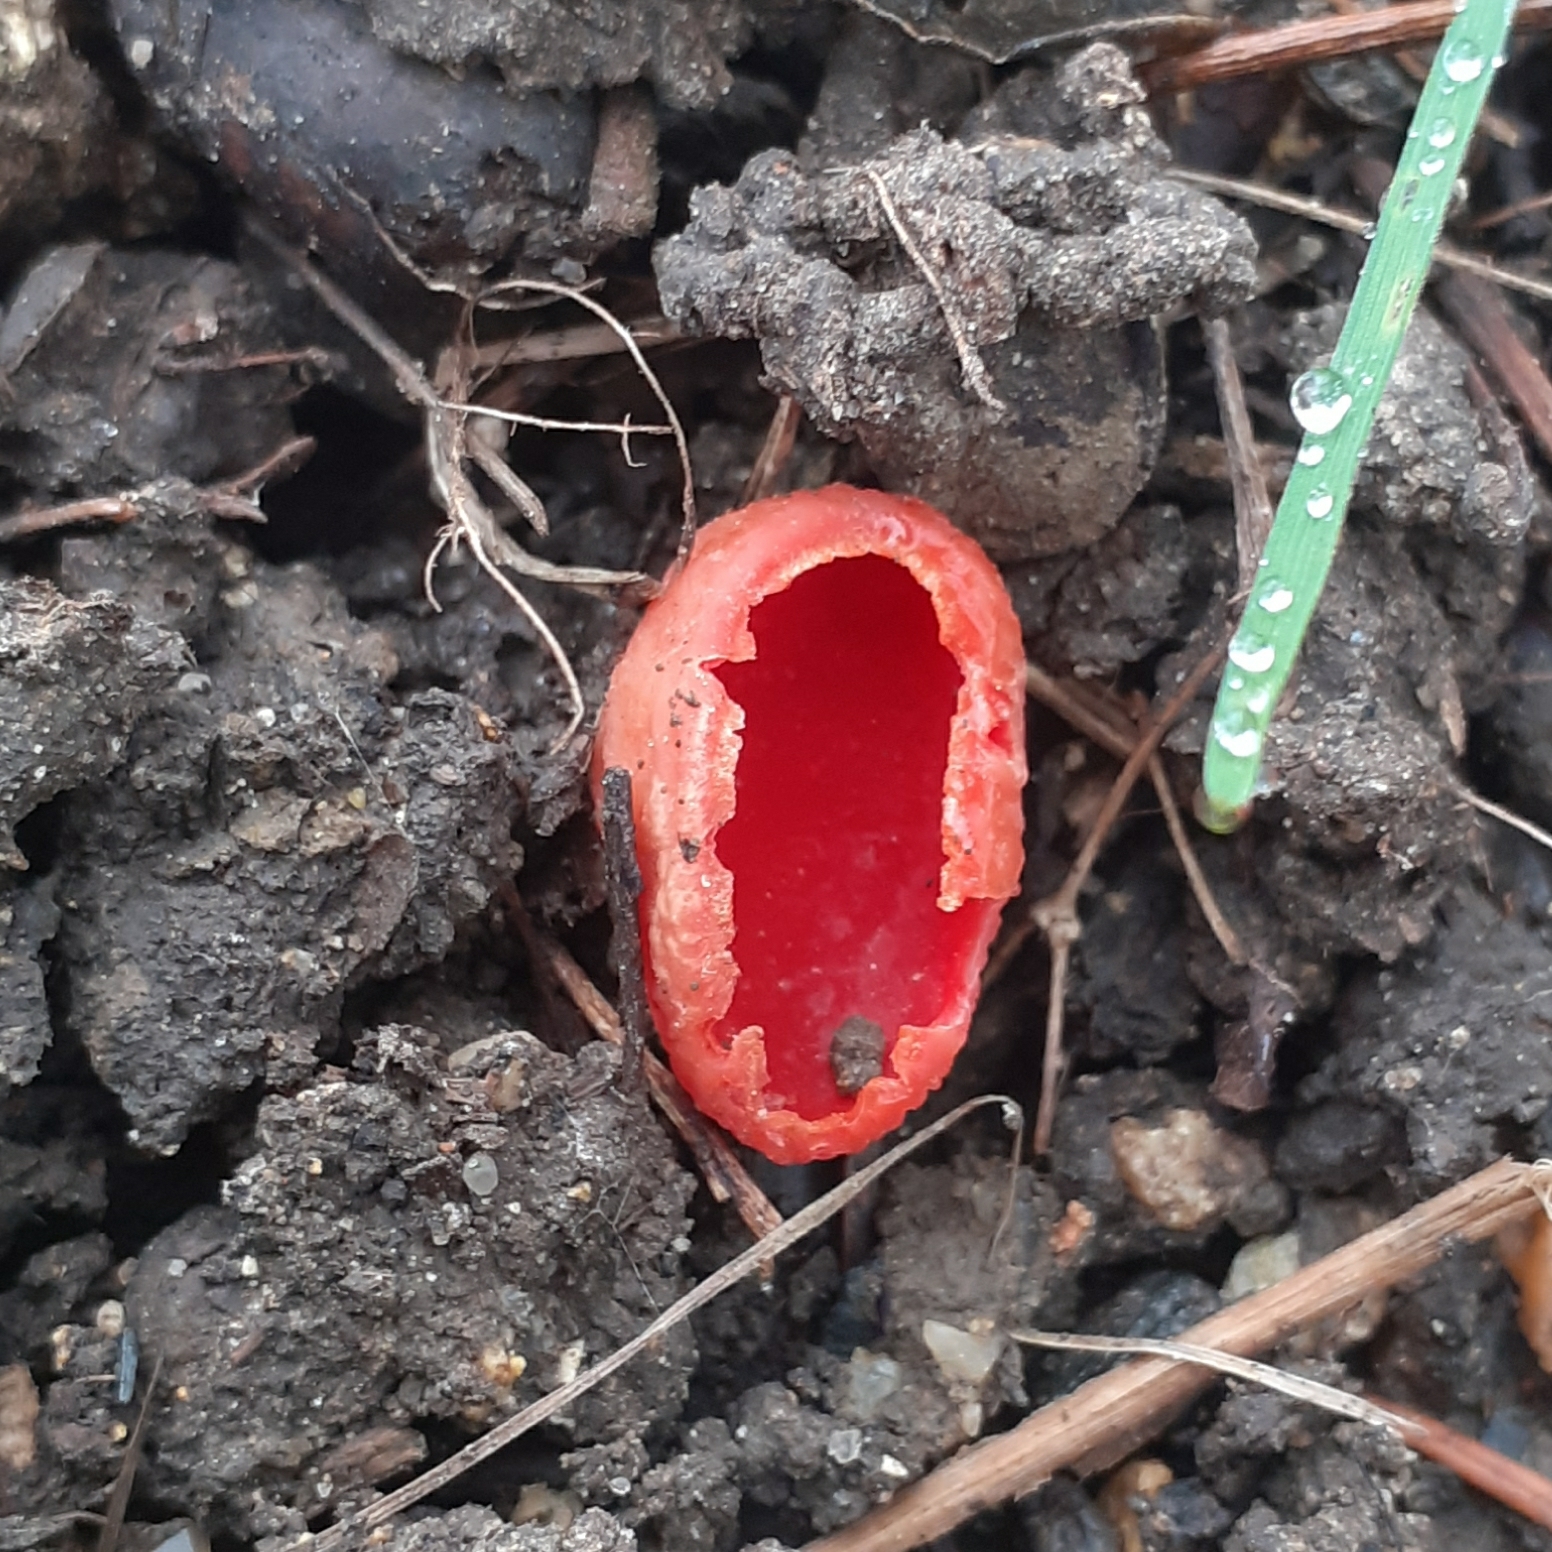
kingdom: Fungi
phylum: Ascomycota
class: Pezizomycetes
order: Pezizales
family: Sarcoscyphaceae
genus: Sarcoscypha
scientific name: Sarcoscypha
